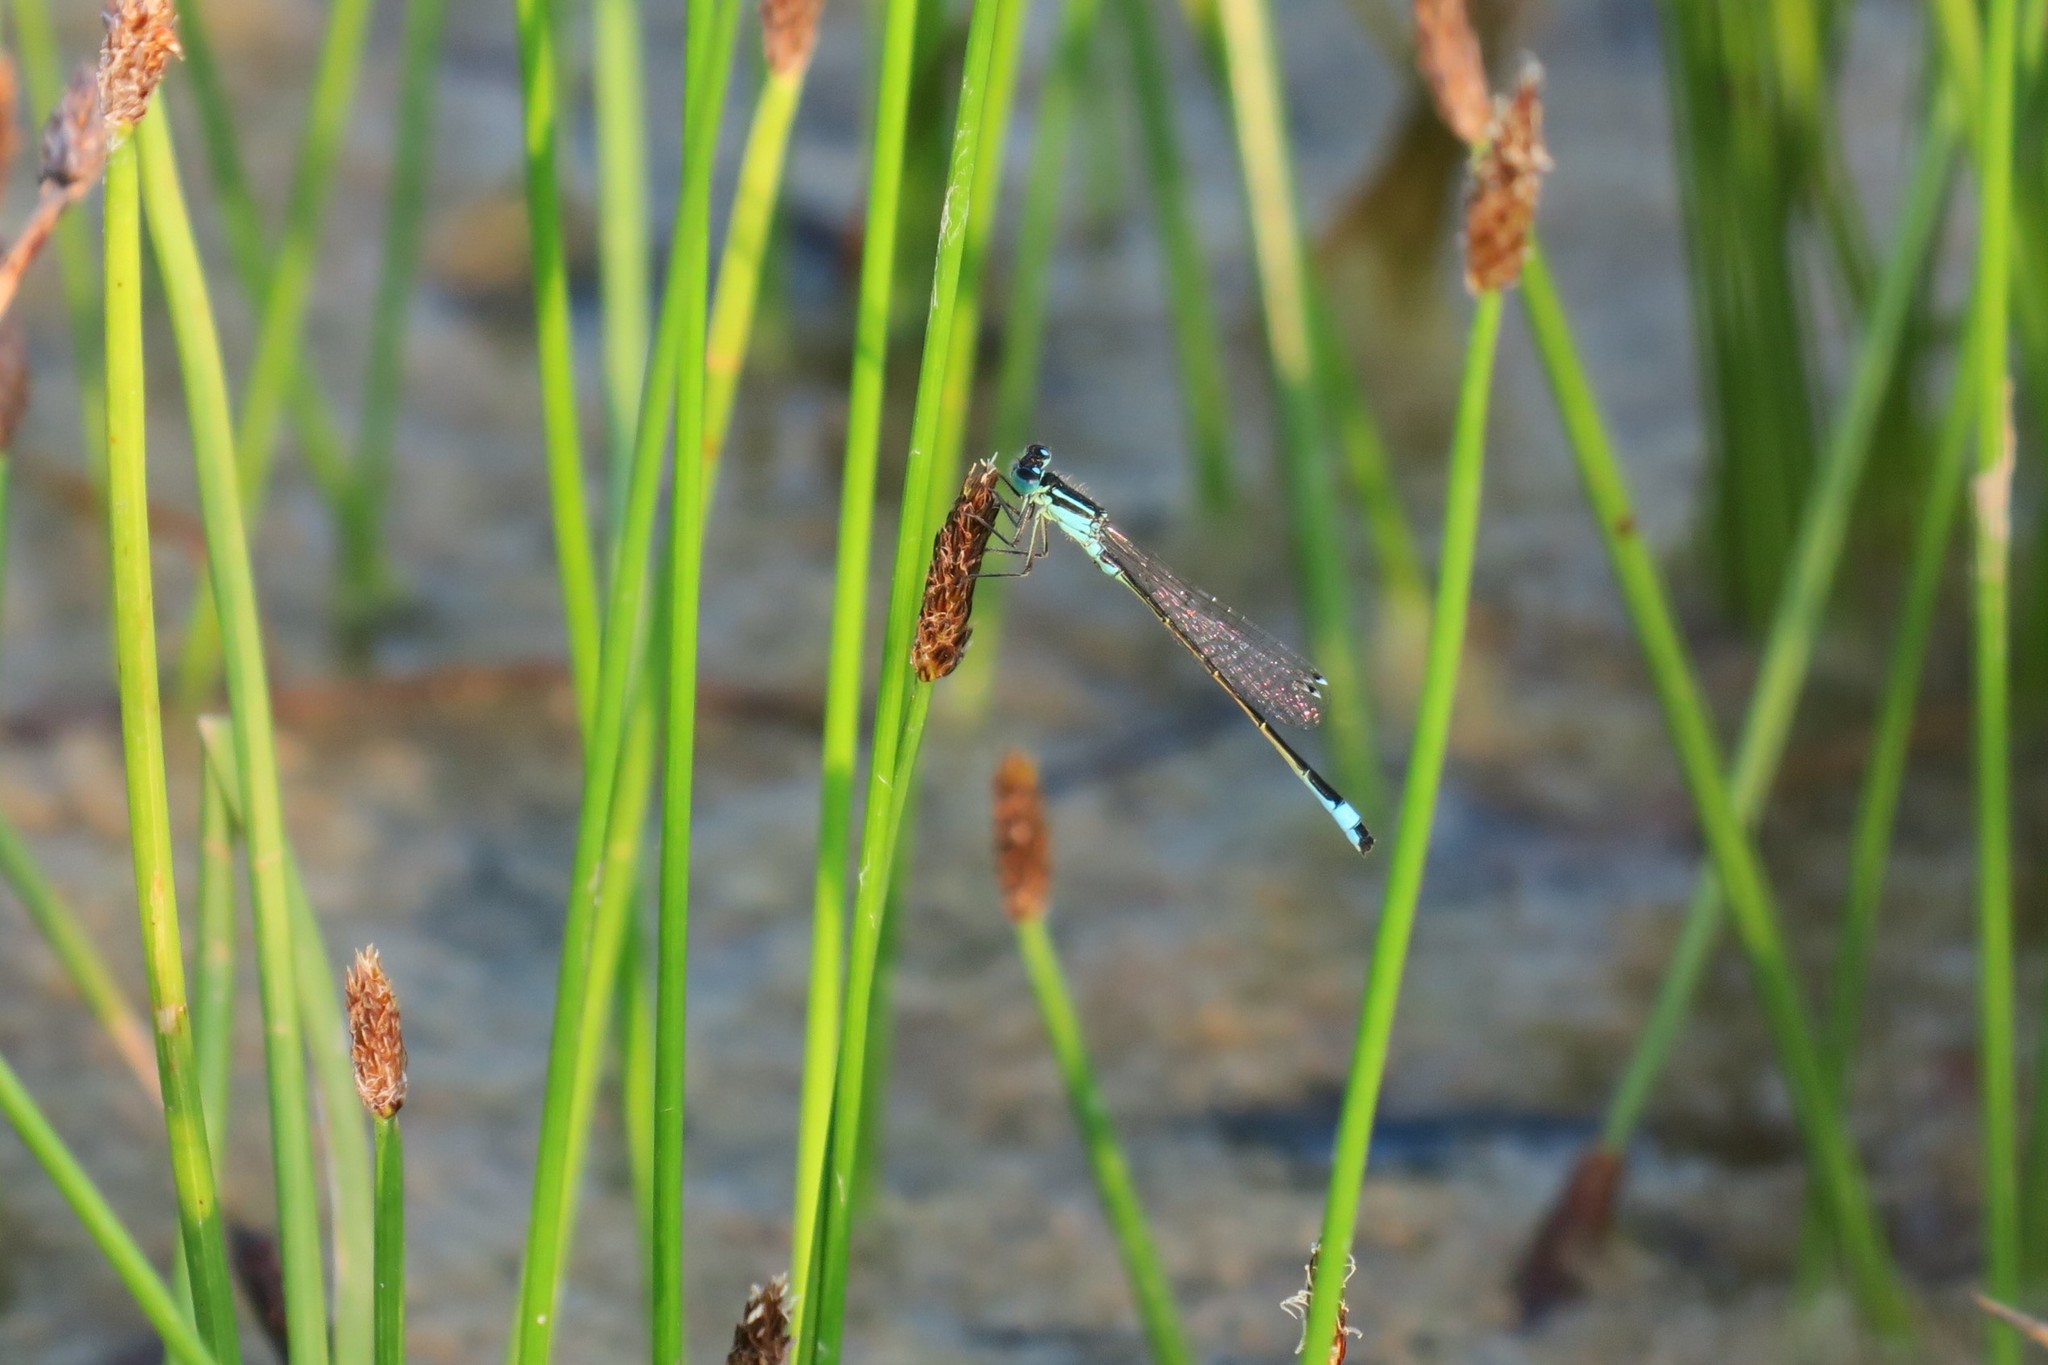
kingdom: Animalia
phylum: Arthropoda
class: Insecta
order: Odonata
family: Coenagrionidae
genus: Ischnura
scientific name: Ischnura elegans
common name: Blue-tailed damselfly
